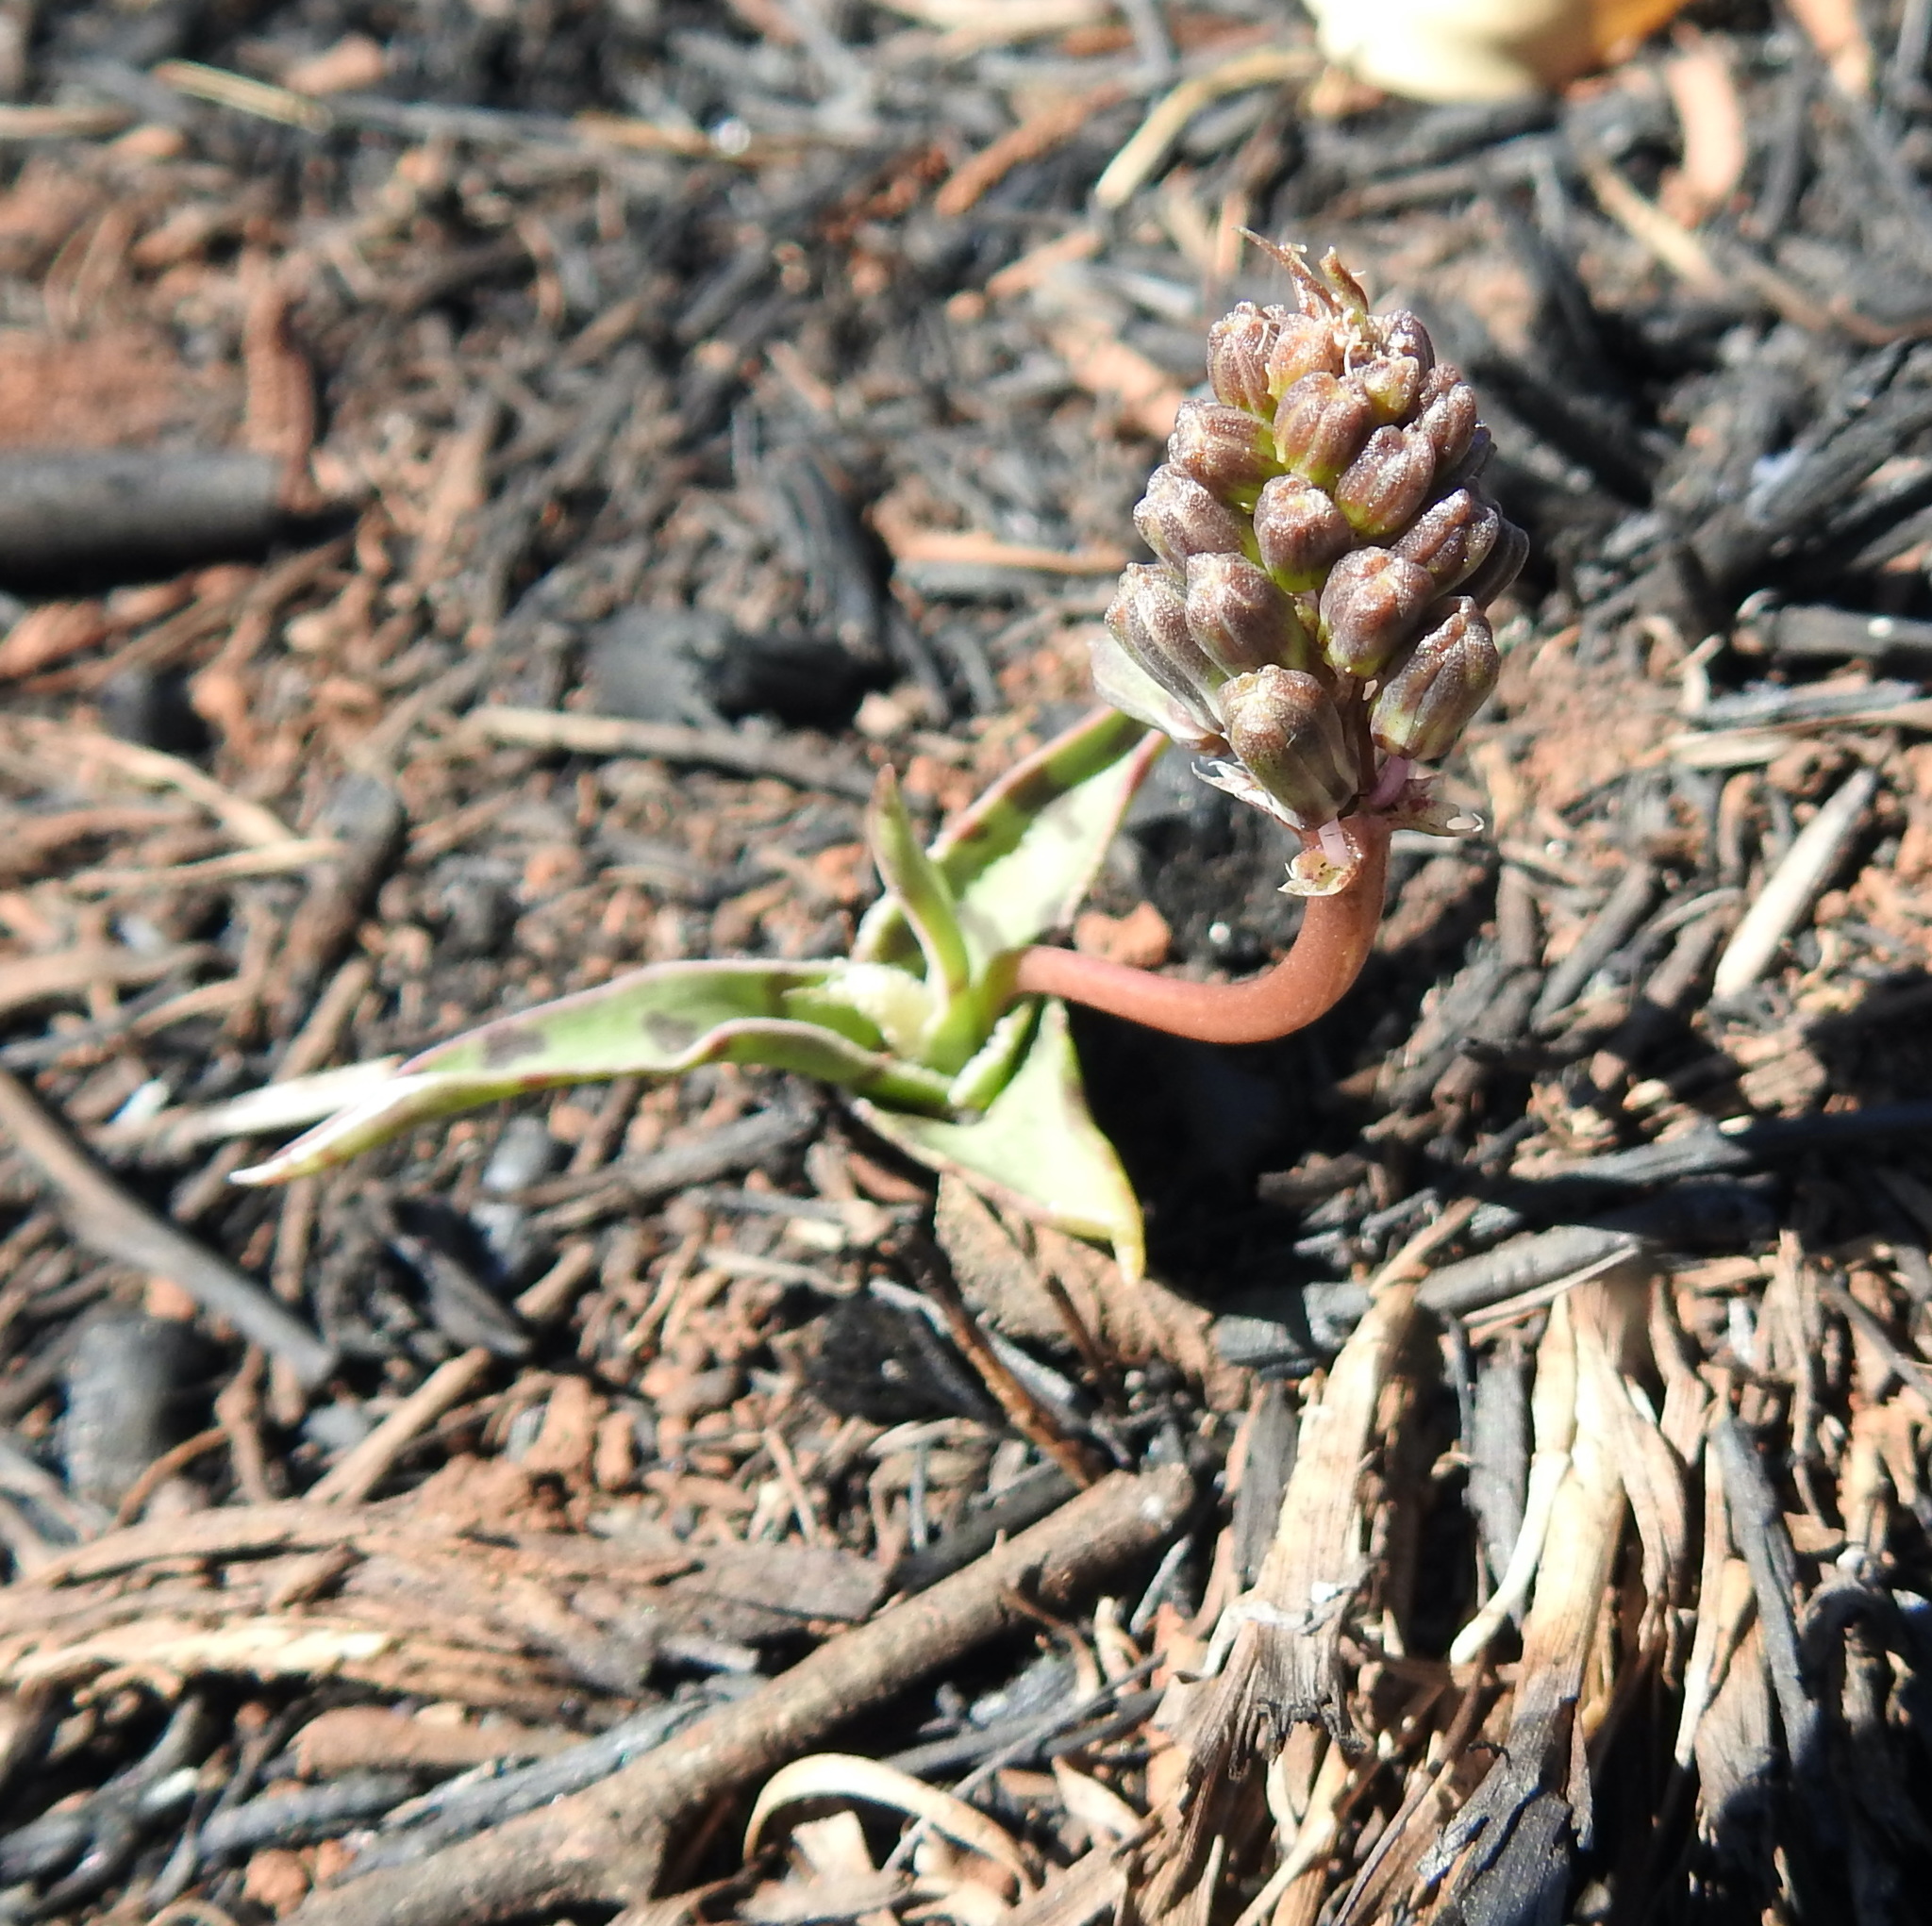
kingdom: Plantae
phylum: Tracheophyta
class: Liliopsida
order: Asparagales
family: Asparagaceae
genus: Ledebouria
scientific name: Ledebouria luteola
